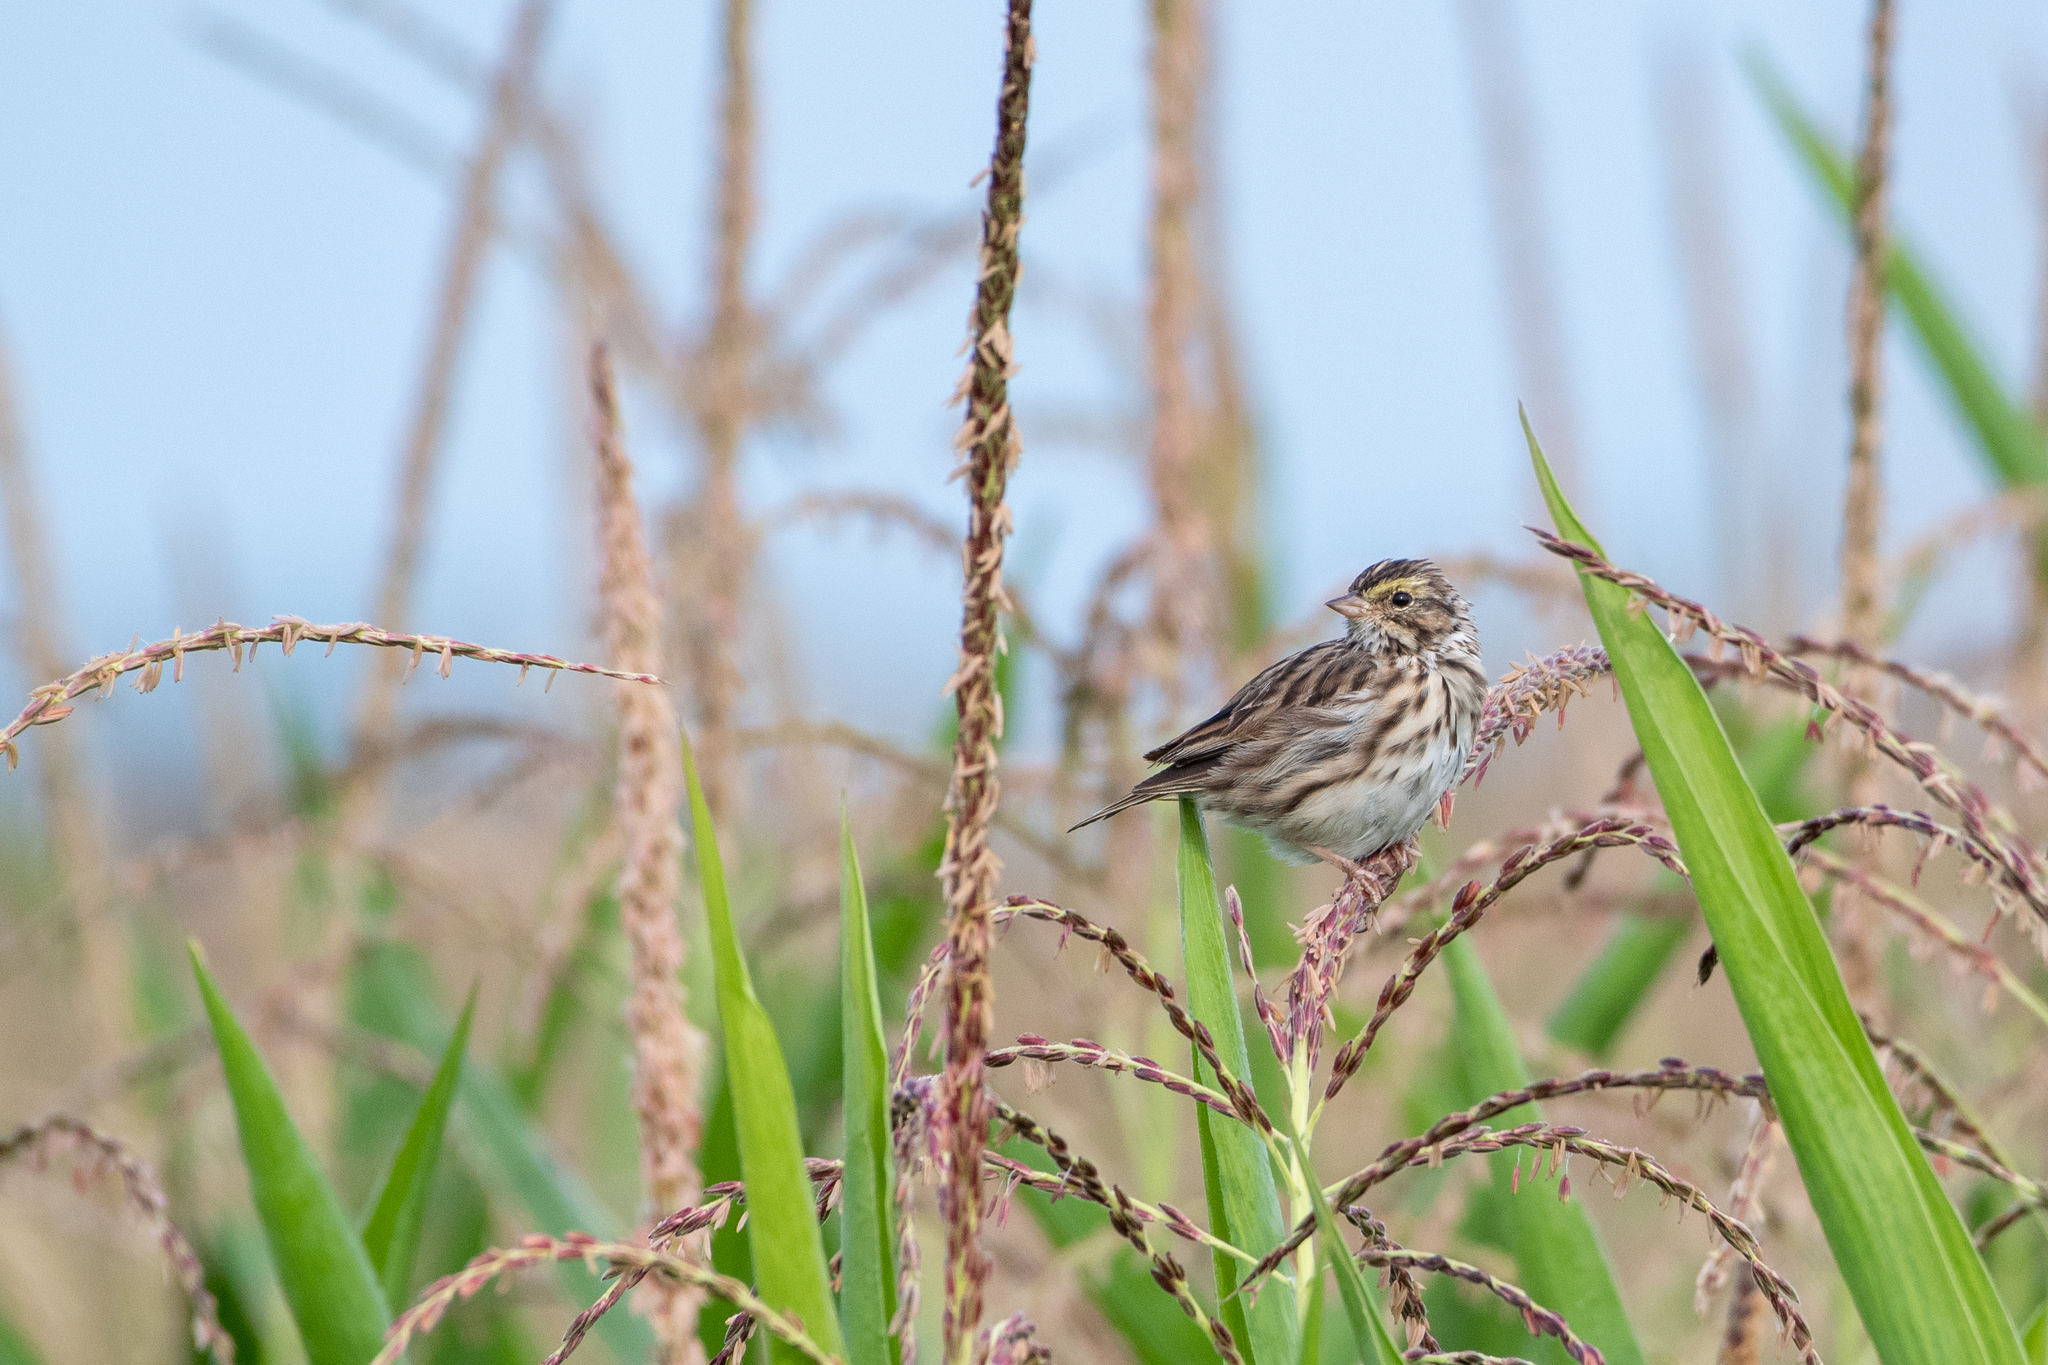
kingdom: Animalia
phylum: Chordata
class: Aves
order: Passeriformes
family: Passerellidae
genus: Passerculus
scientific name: Passerculus sandwichensis
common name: Savannah sparrow
